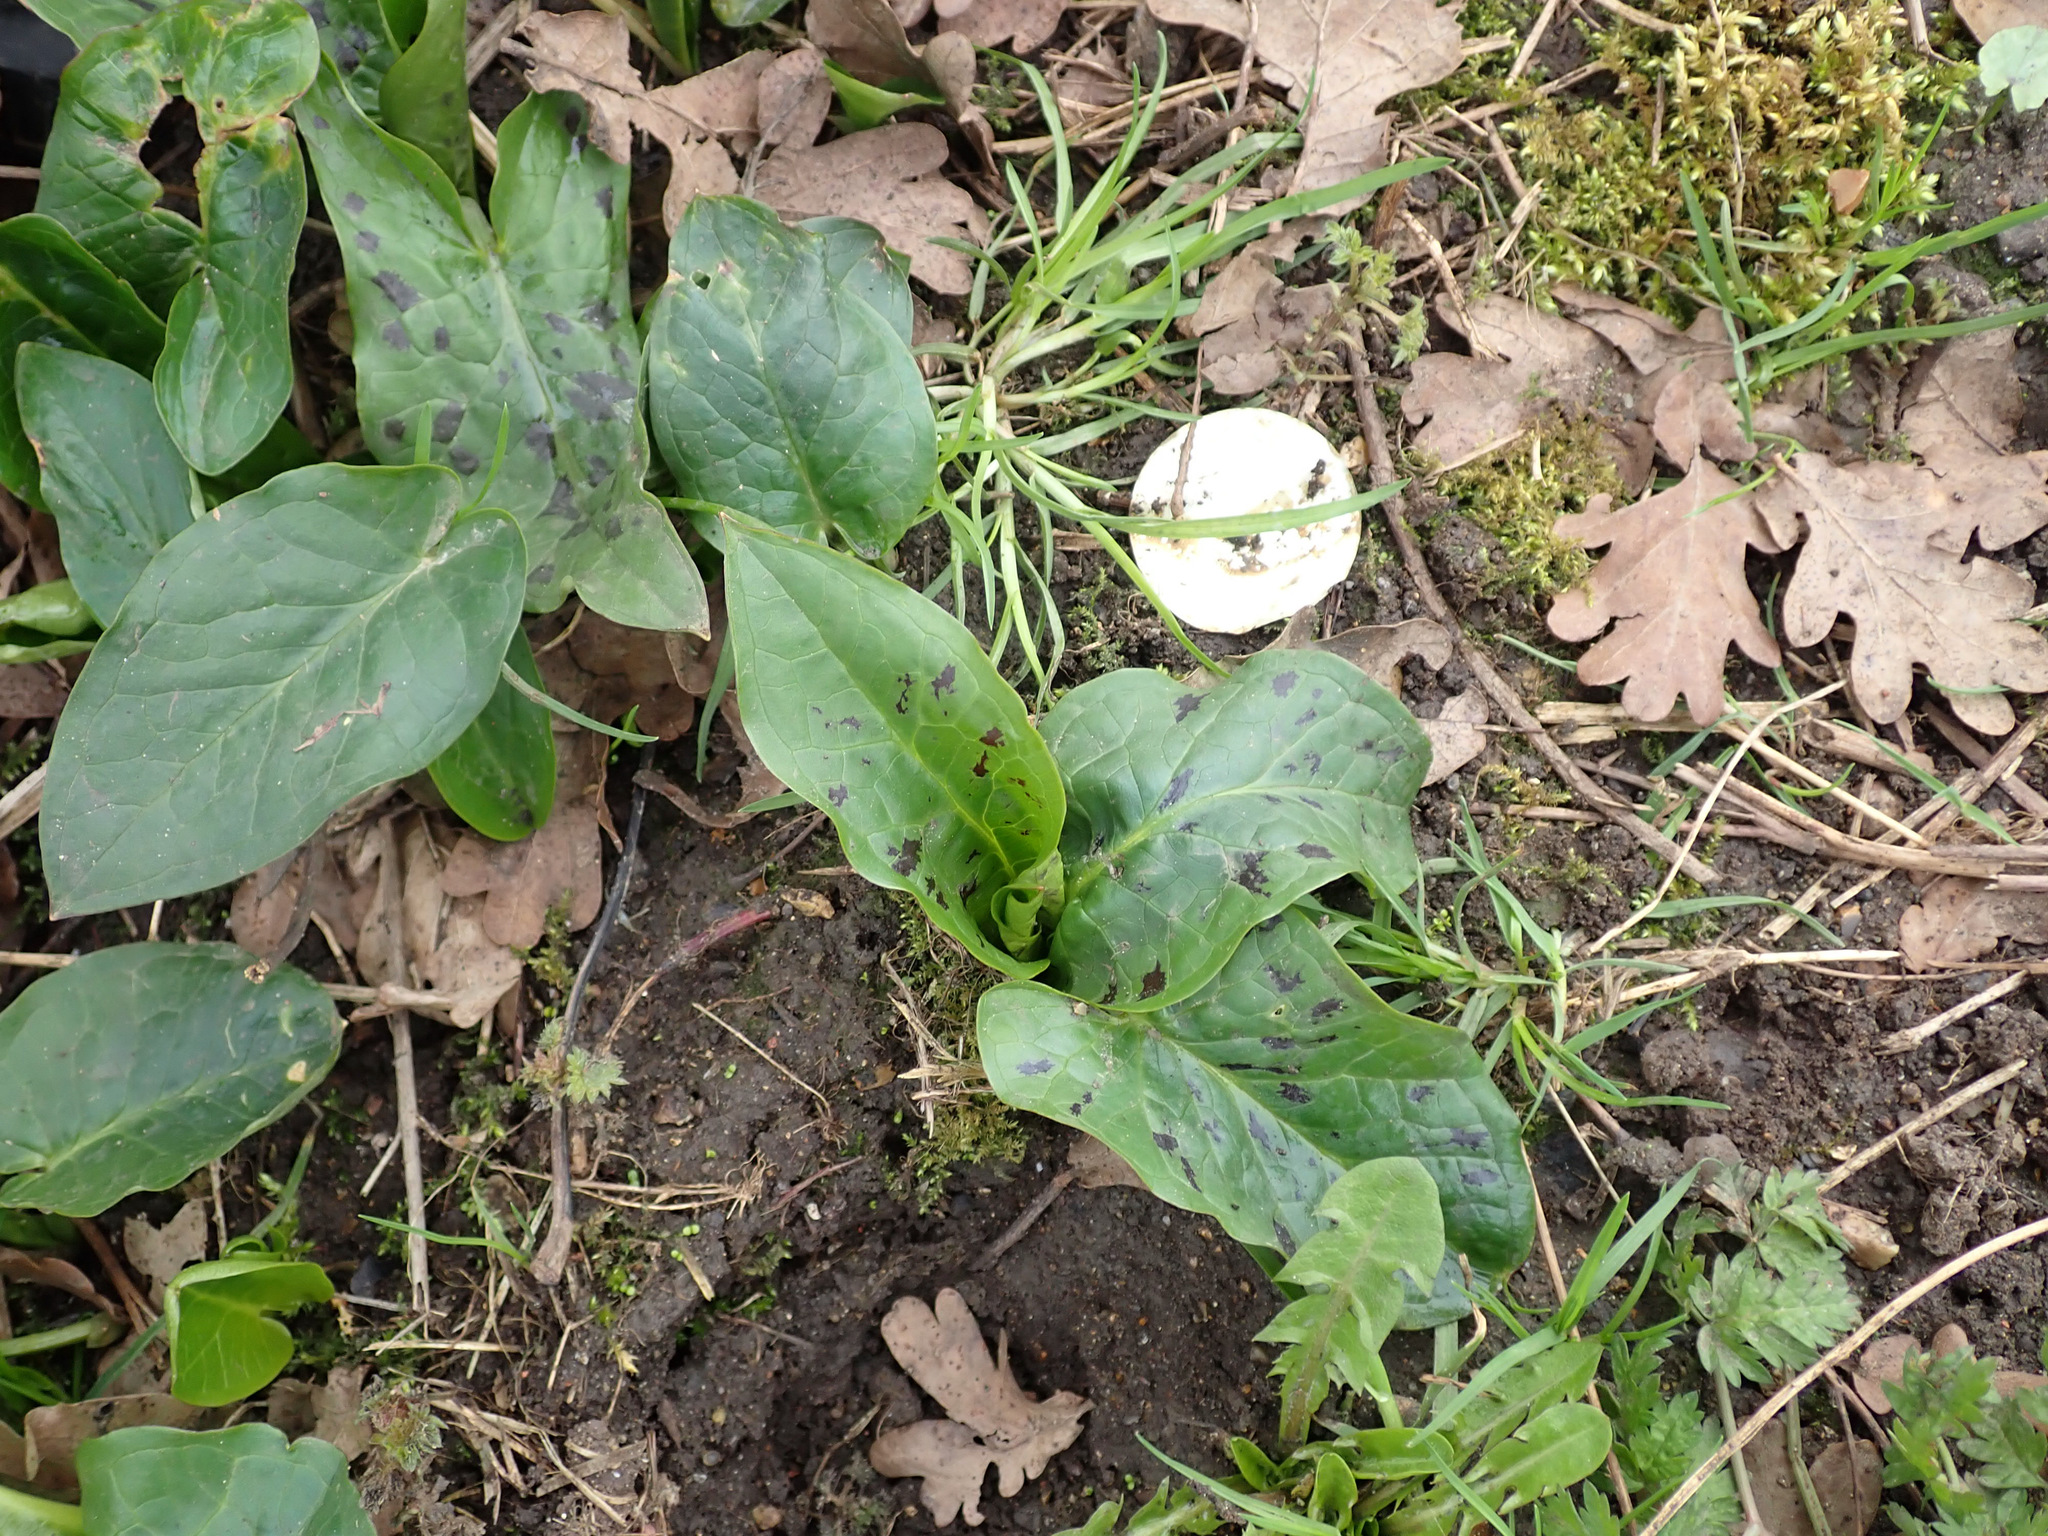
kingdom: Plantae
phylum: Tracheophyta
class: Liliopsida
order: Alismatales
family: Araceae
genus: Arum
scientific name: Arum maculatum
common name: Lords-and-ladies
